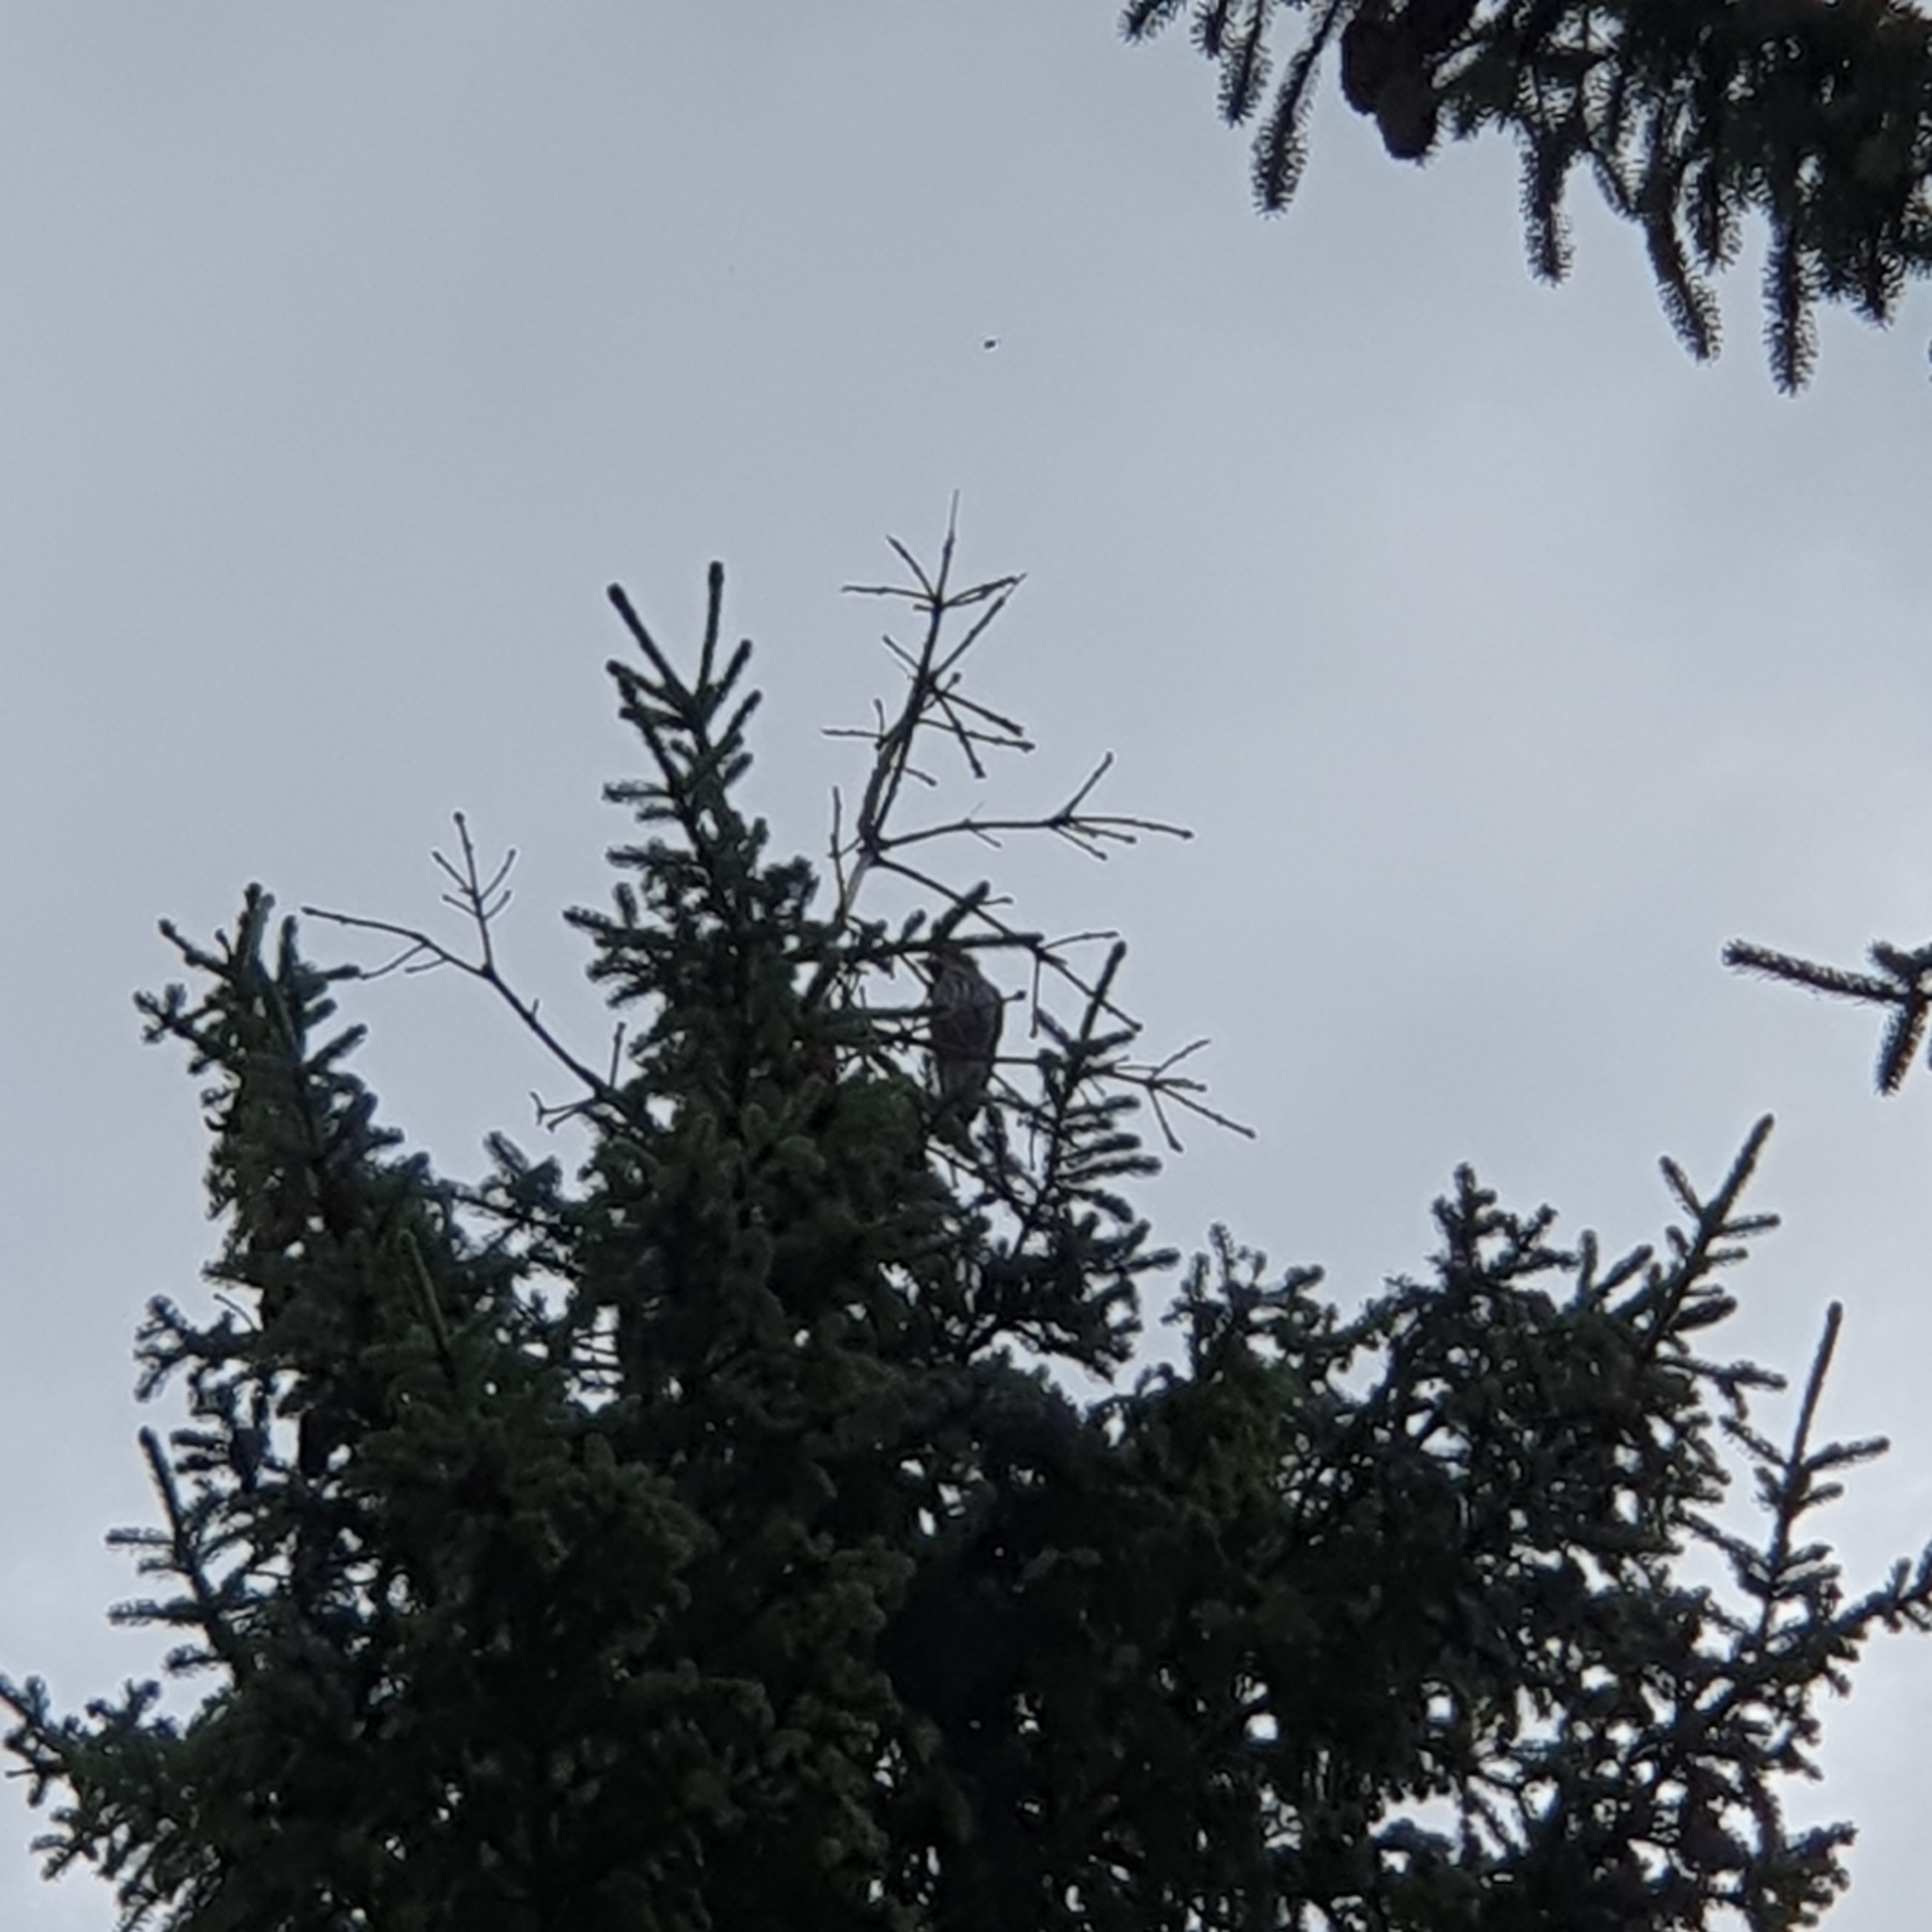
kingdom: Animalia
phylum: Chordata
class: Aves
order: Passeriformes
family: Corvidae
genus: Nucifraga
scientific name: Nucifraga caryocatactes
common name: Spotted nutcracker
